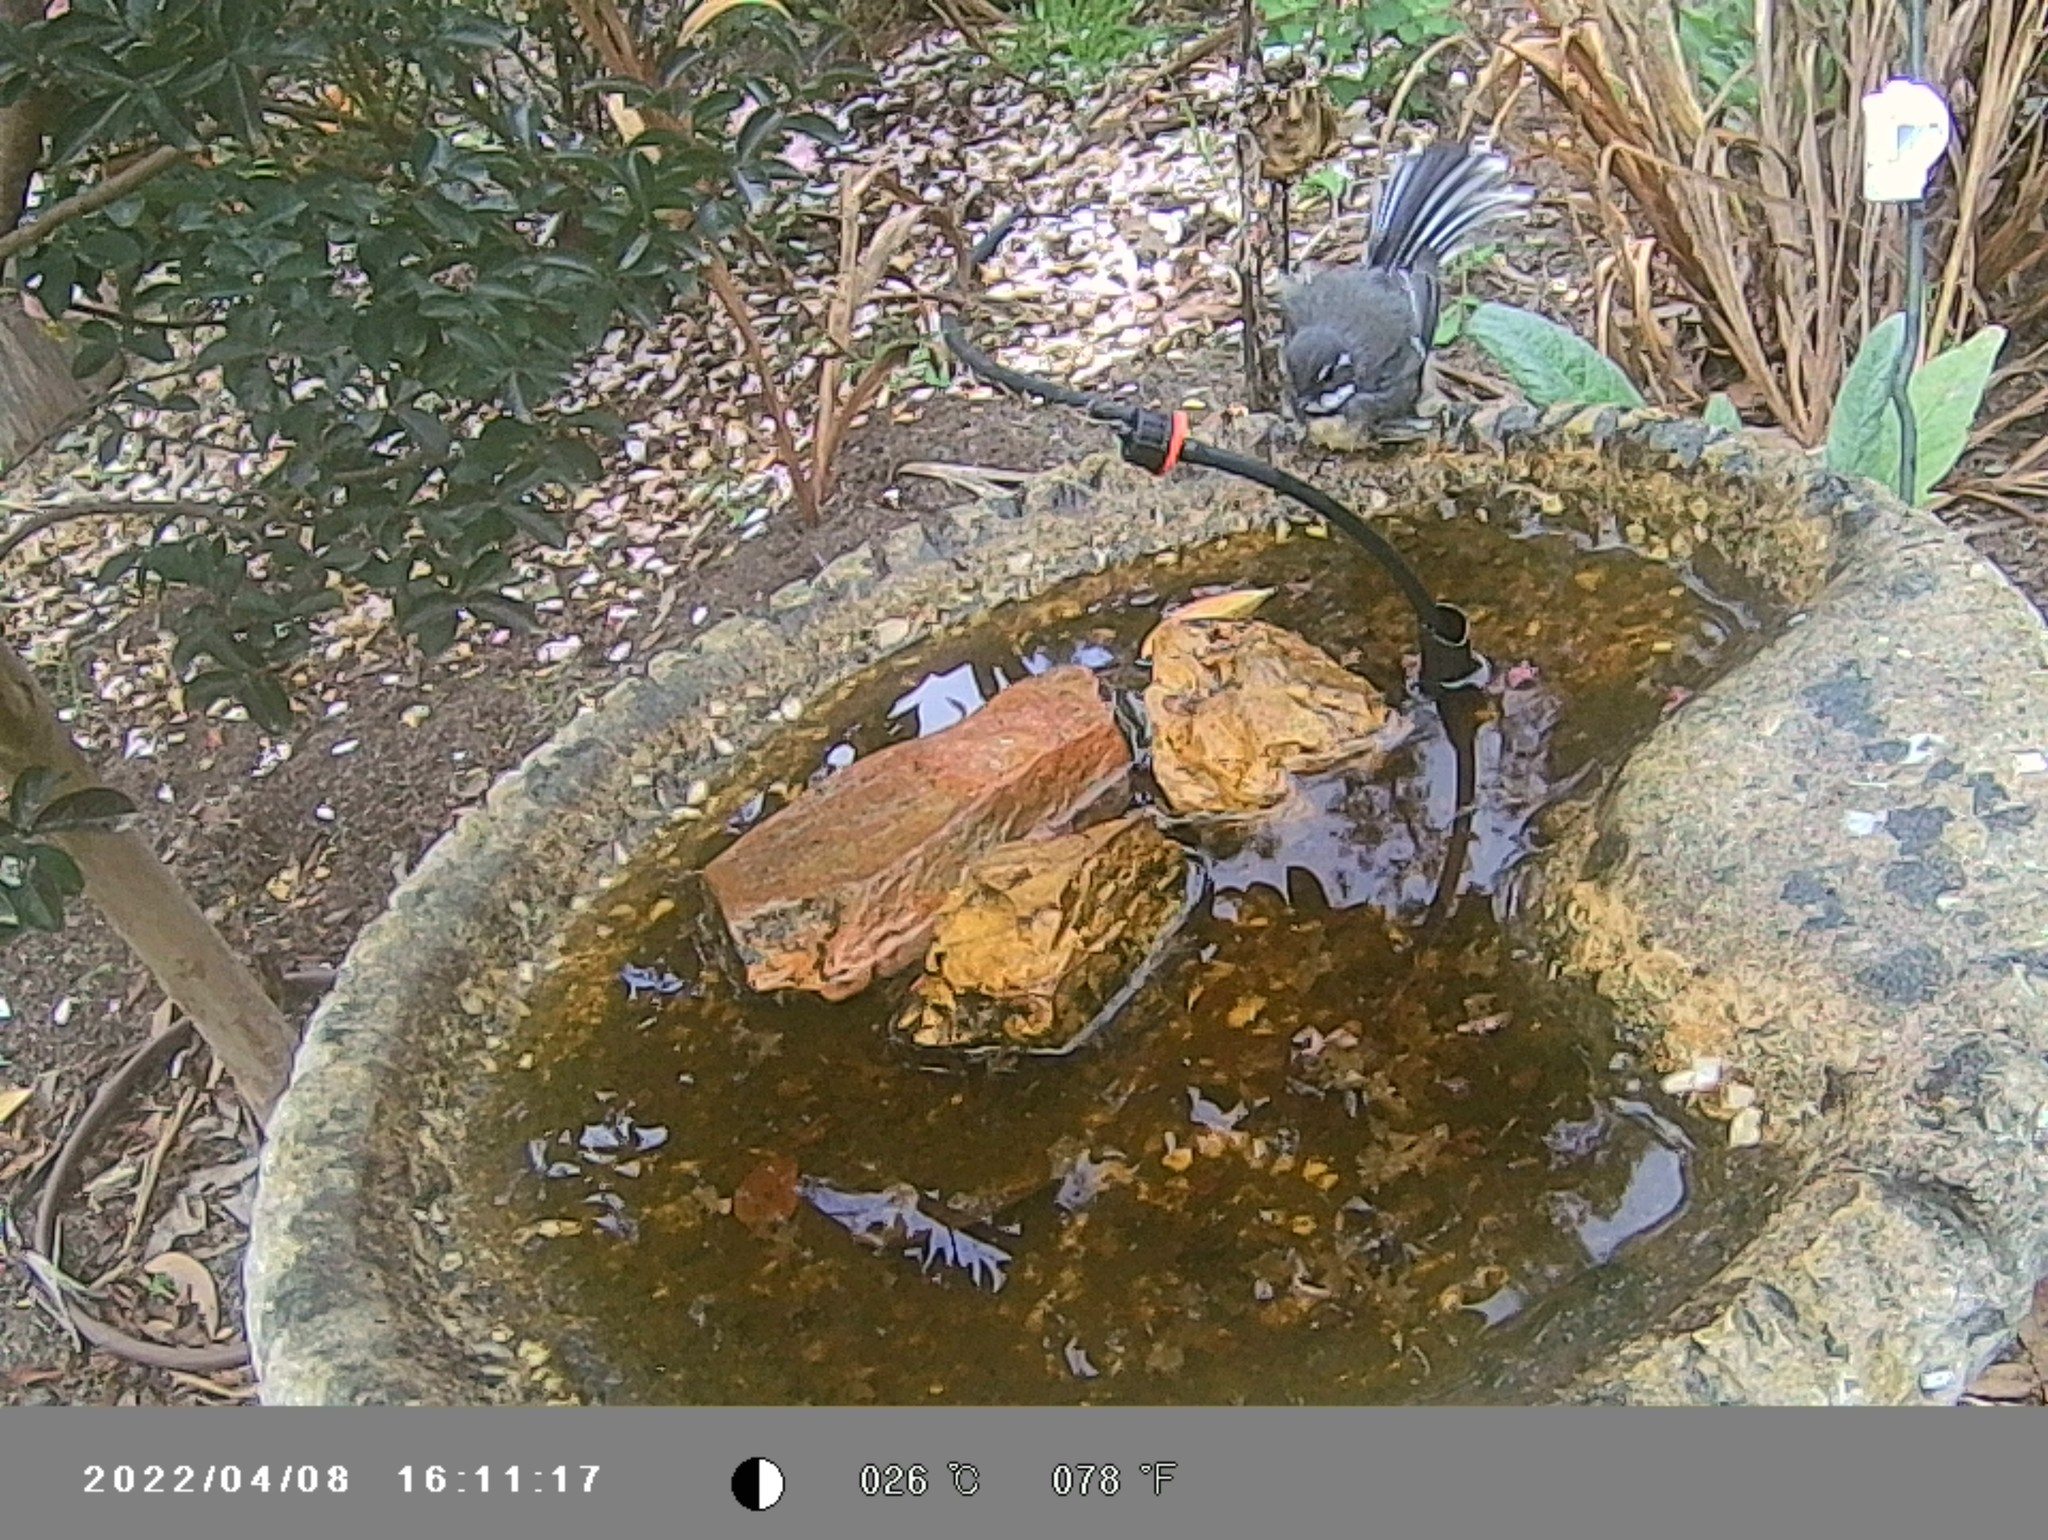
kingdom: Animalia
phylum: Chordata
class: Aves
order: Passeriformes
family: Rhipiduridae
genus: Rhipidura
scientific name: Rhipidura albiscapa
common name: Grey fantail
